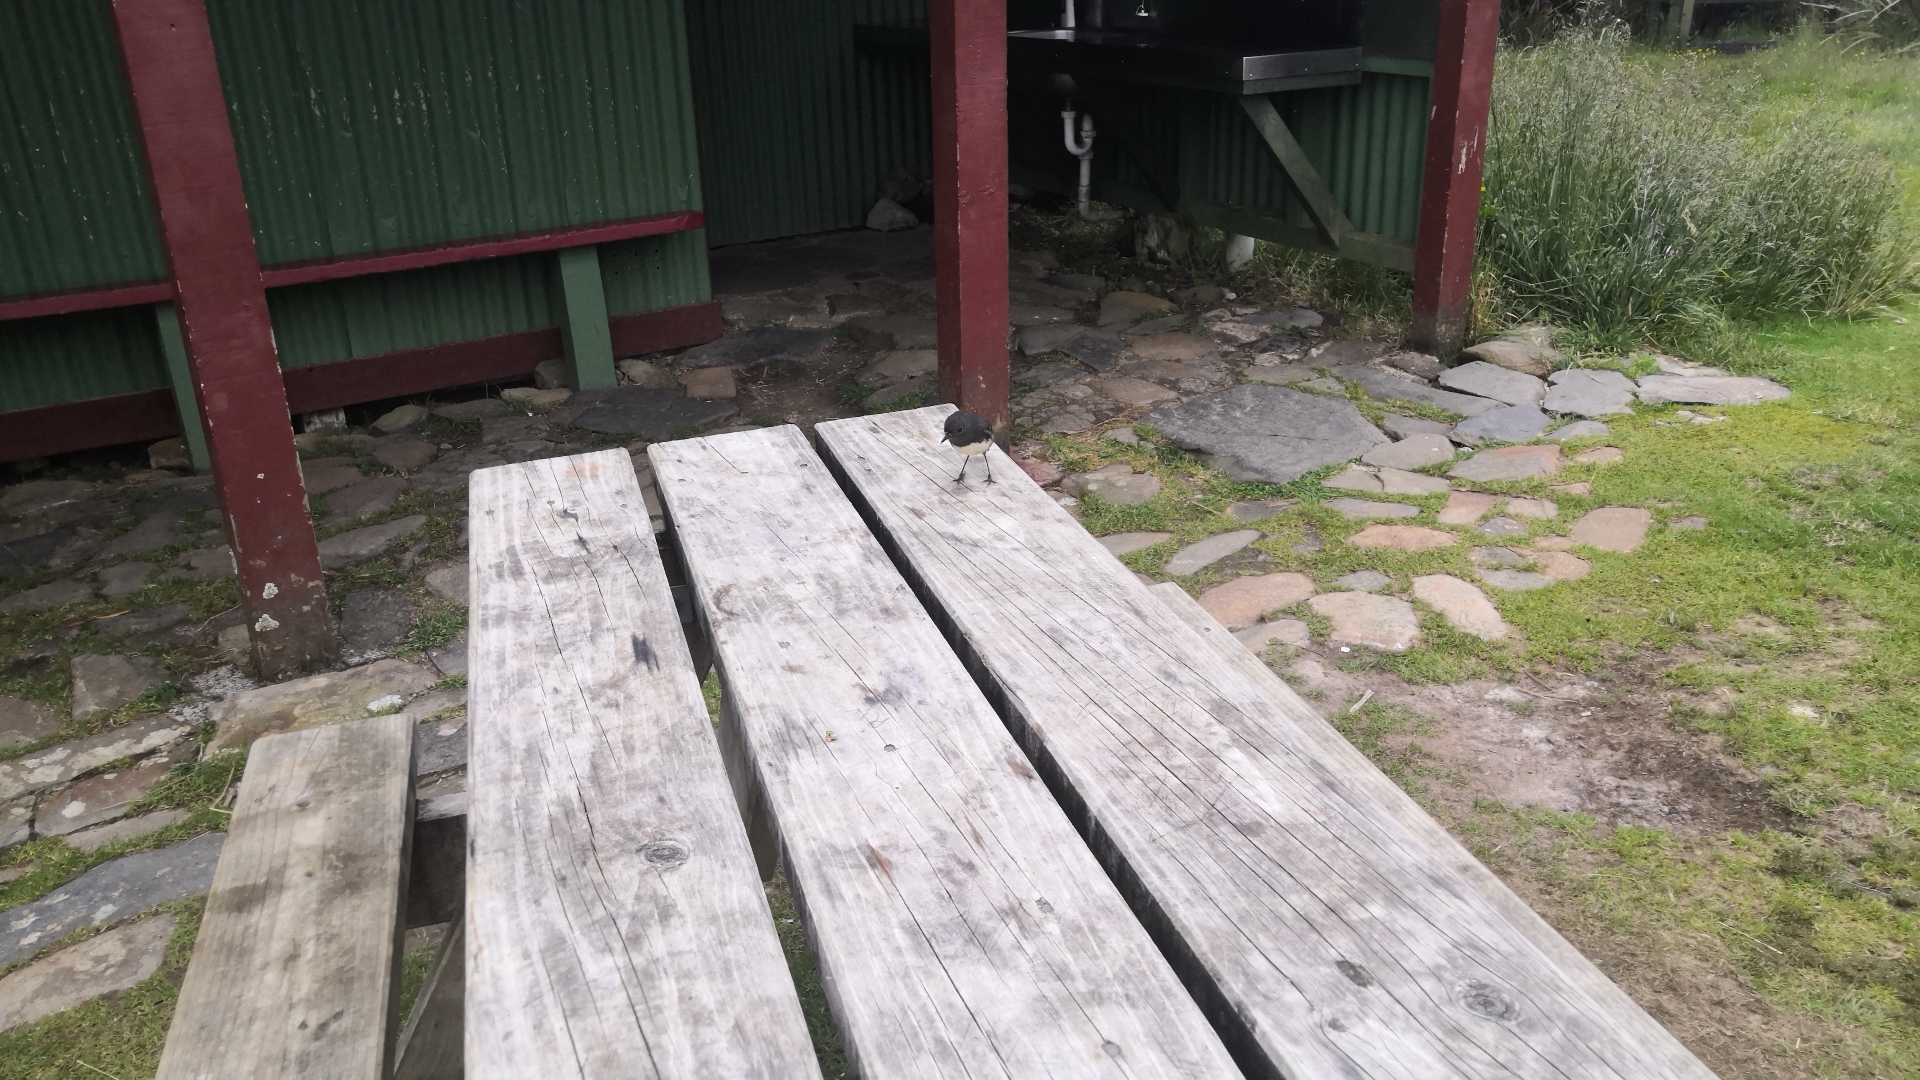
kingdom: Animalia
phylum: Chordata
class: Aves
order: Passeriformes
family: Petroicidae
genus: Petroica
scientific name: Petroica australis
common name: New zealand robin
